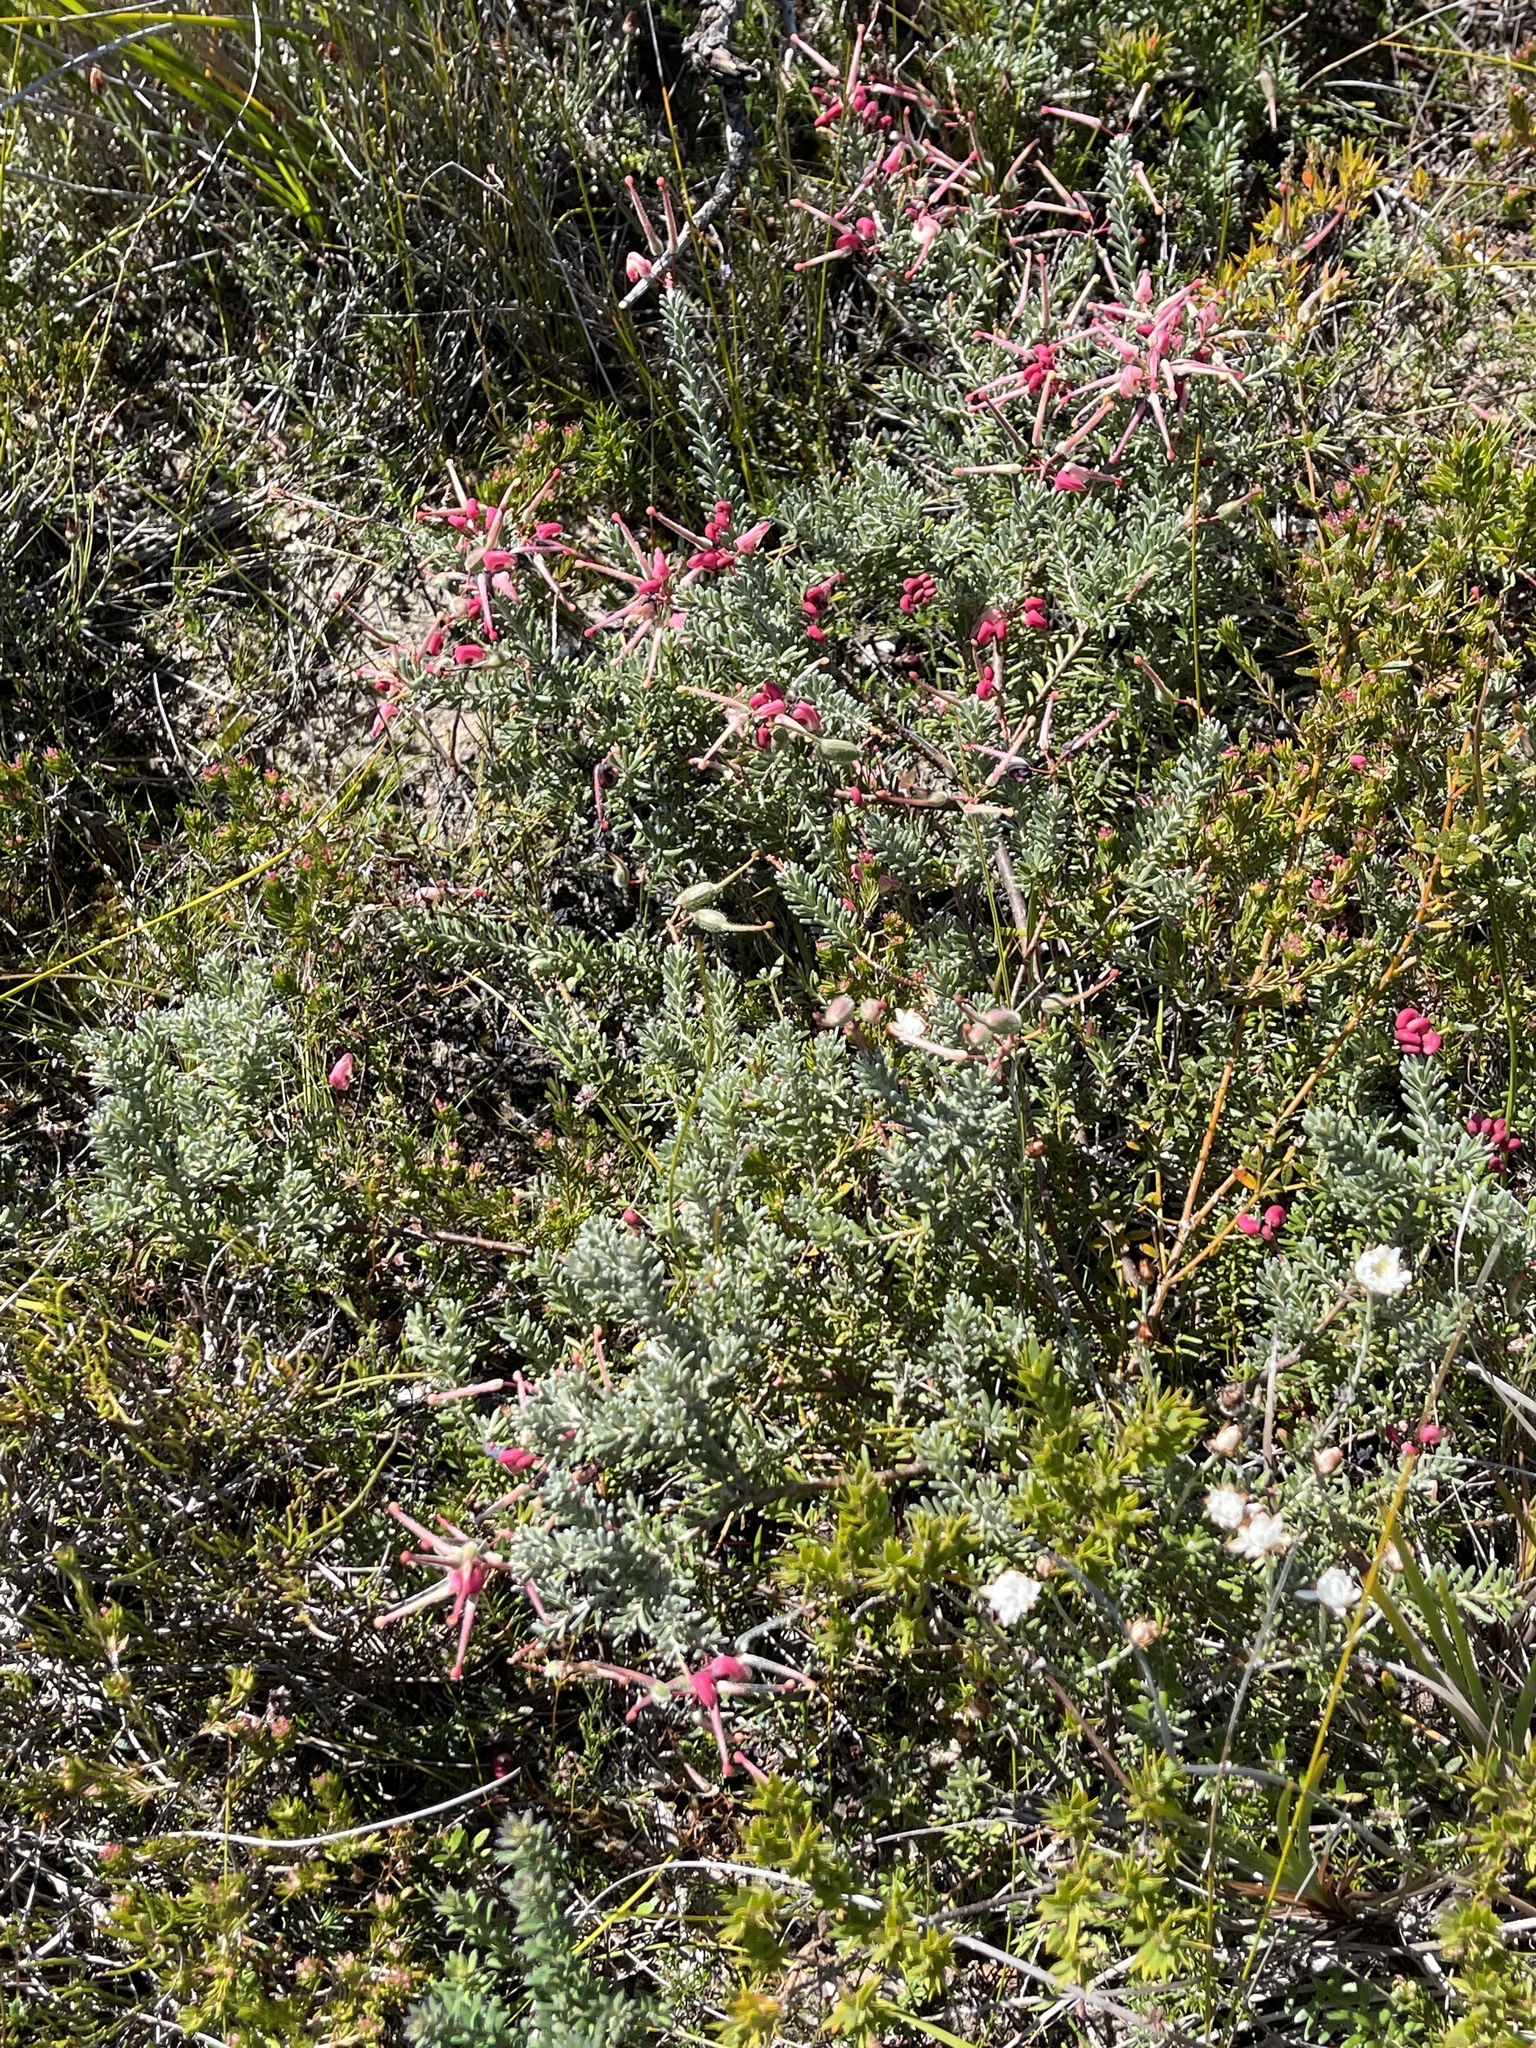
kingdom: Plantae
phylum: Tracheophyta
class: Magnoliopsida
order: Proteales
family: Proteaceae
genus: Grevillea
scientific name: Grevillea lanigera
